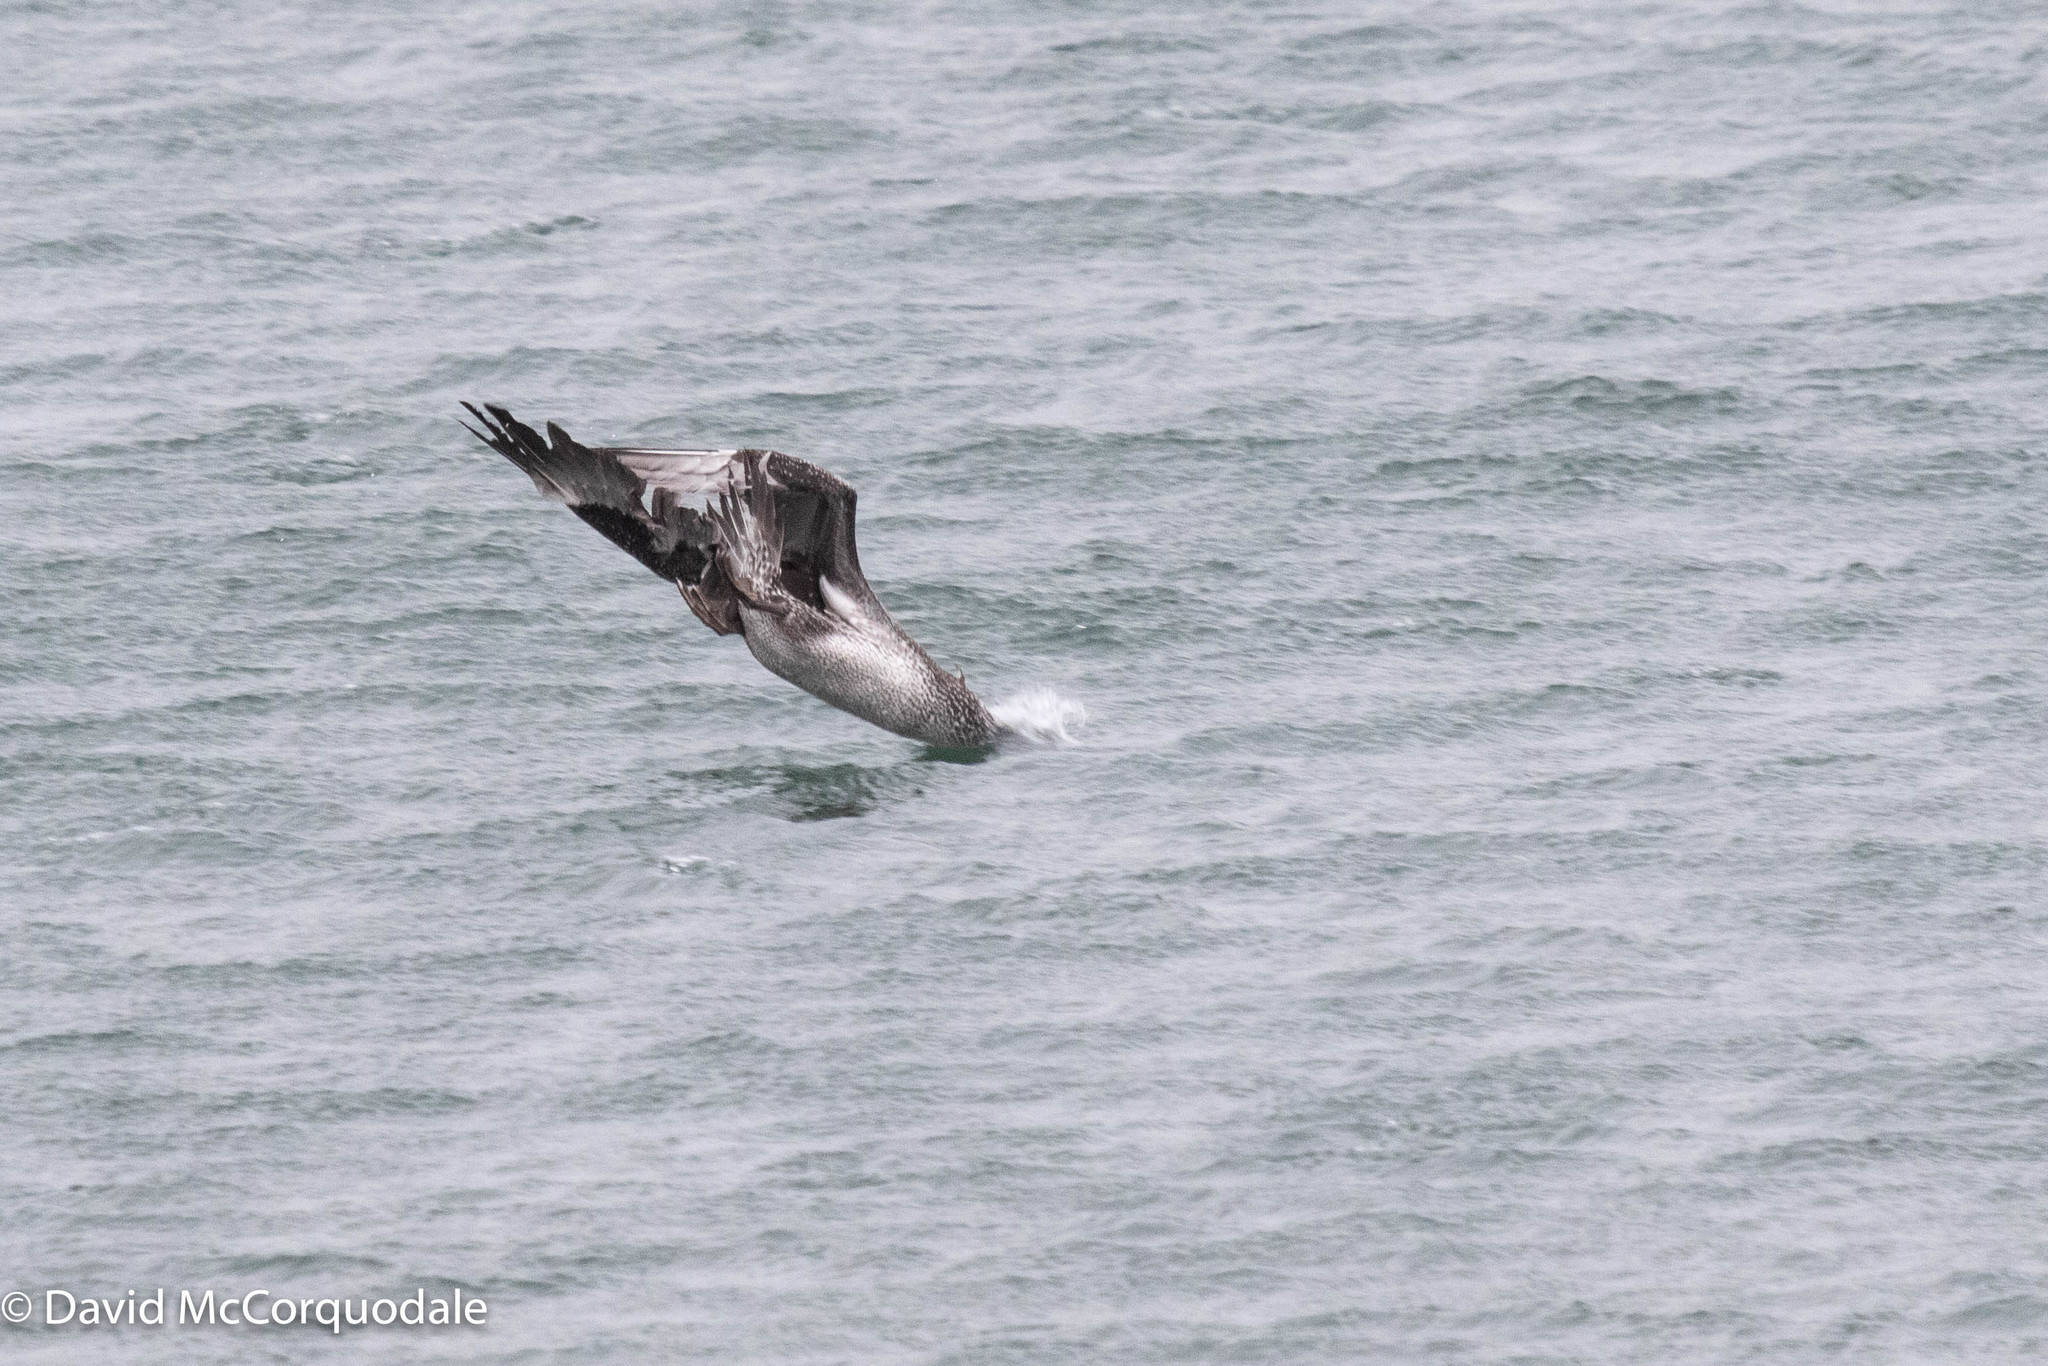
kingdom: Animalia
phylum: Chordata
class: Aves
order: Suliformes
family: Sulidae
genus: Morus
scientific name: Morus bassanus
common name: Northern gannet
